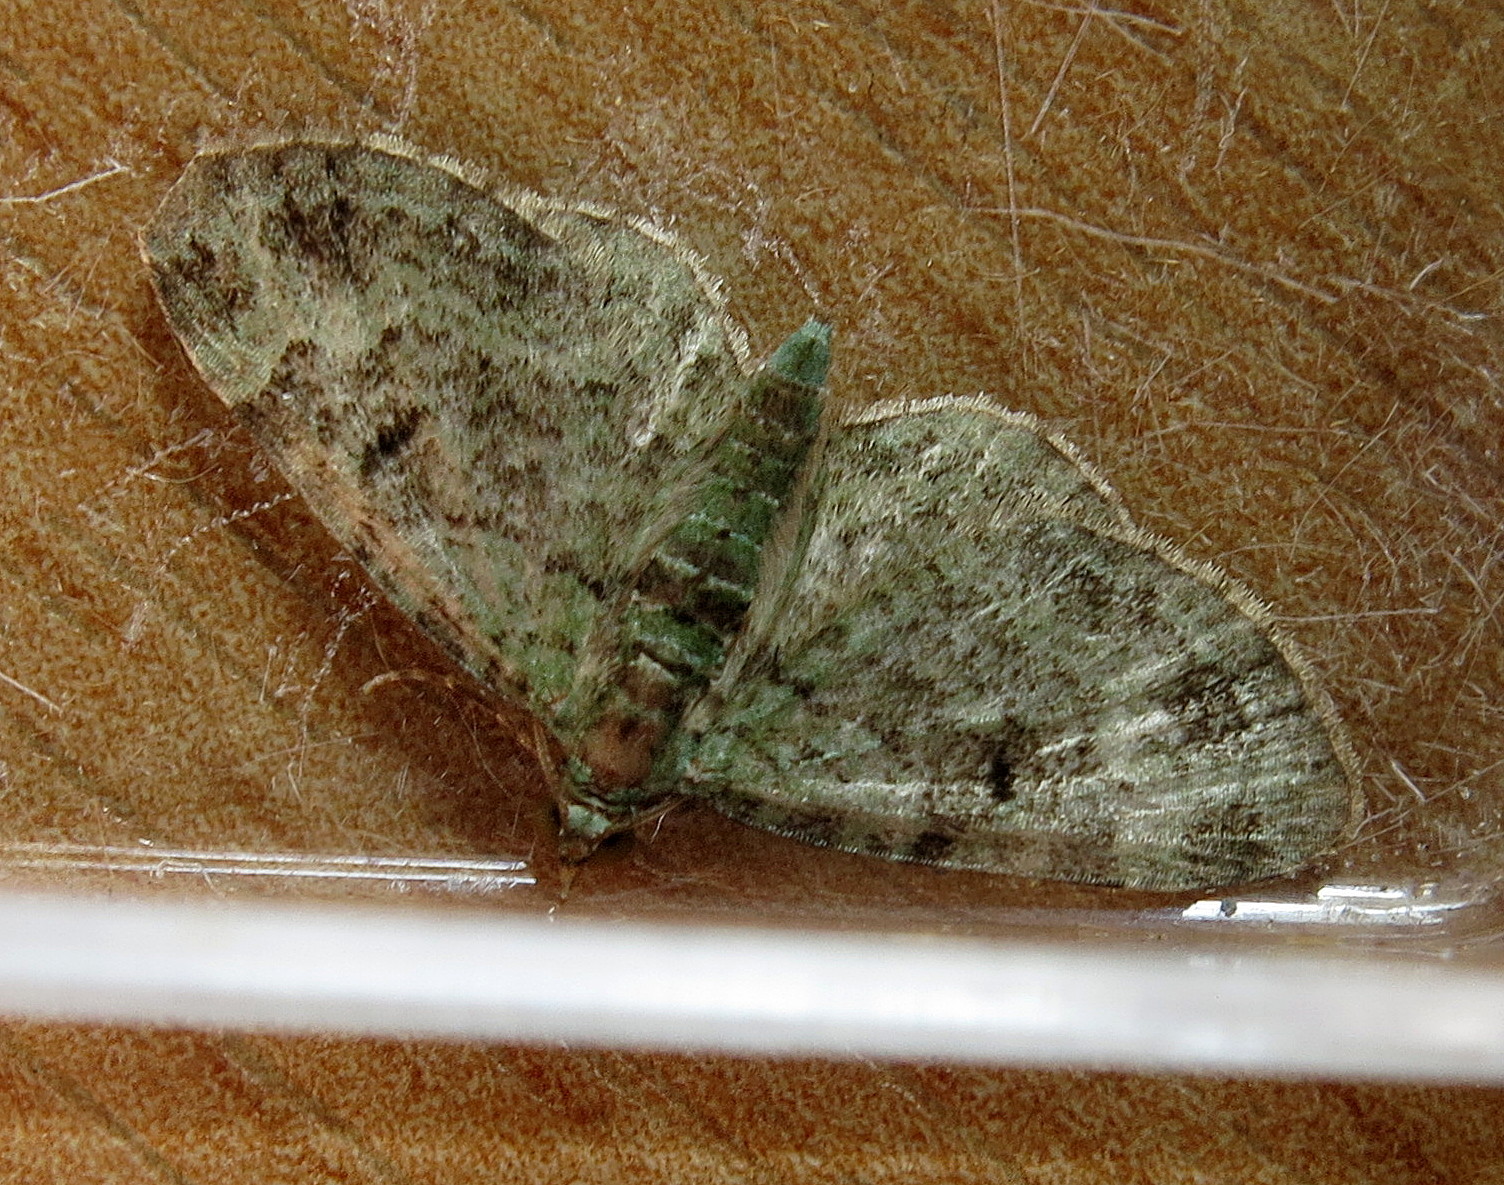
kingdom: Animalia
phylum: Arthropoda
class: Insecta
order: Lepidoptera
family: Geometridae
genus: Pasiphila
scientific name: Pasiphila rectangulata
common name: Green pug
